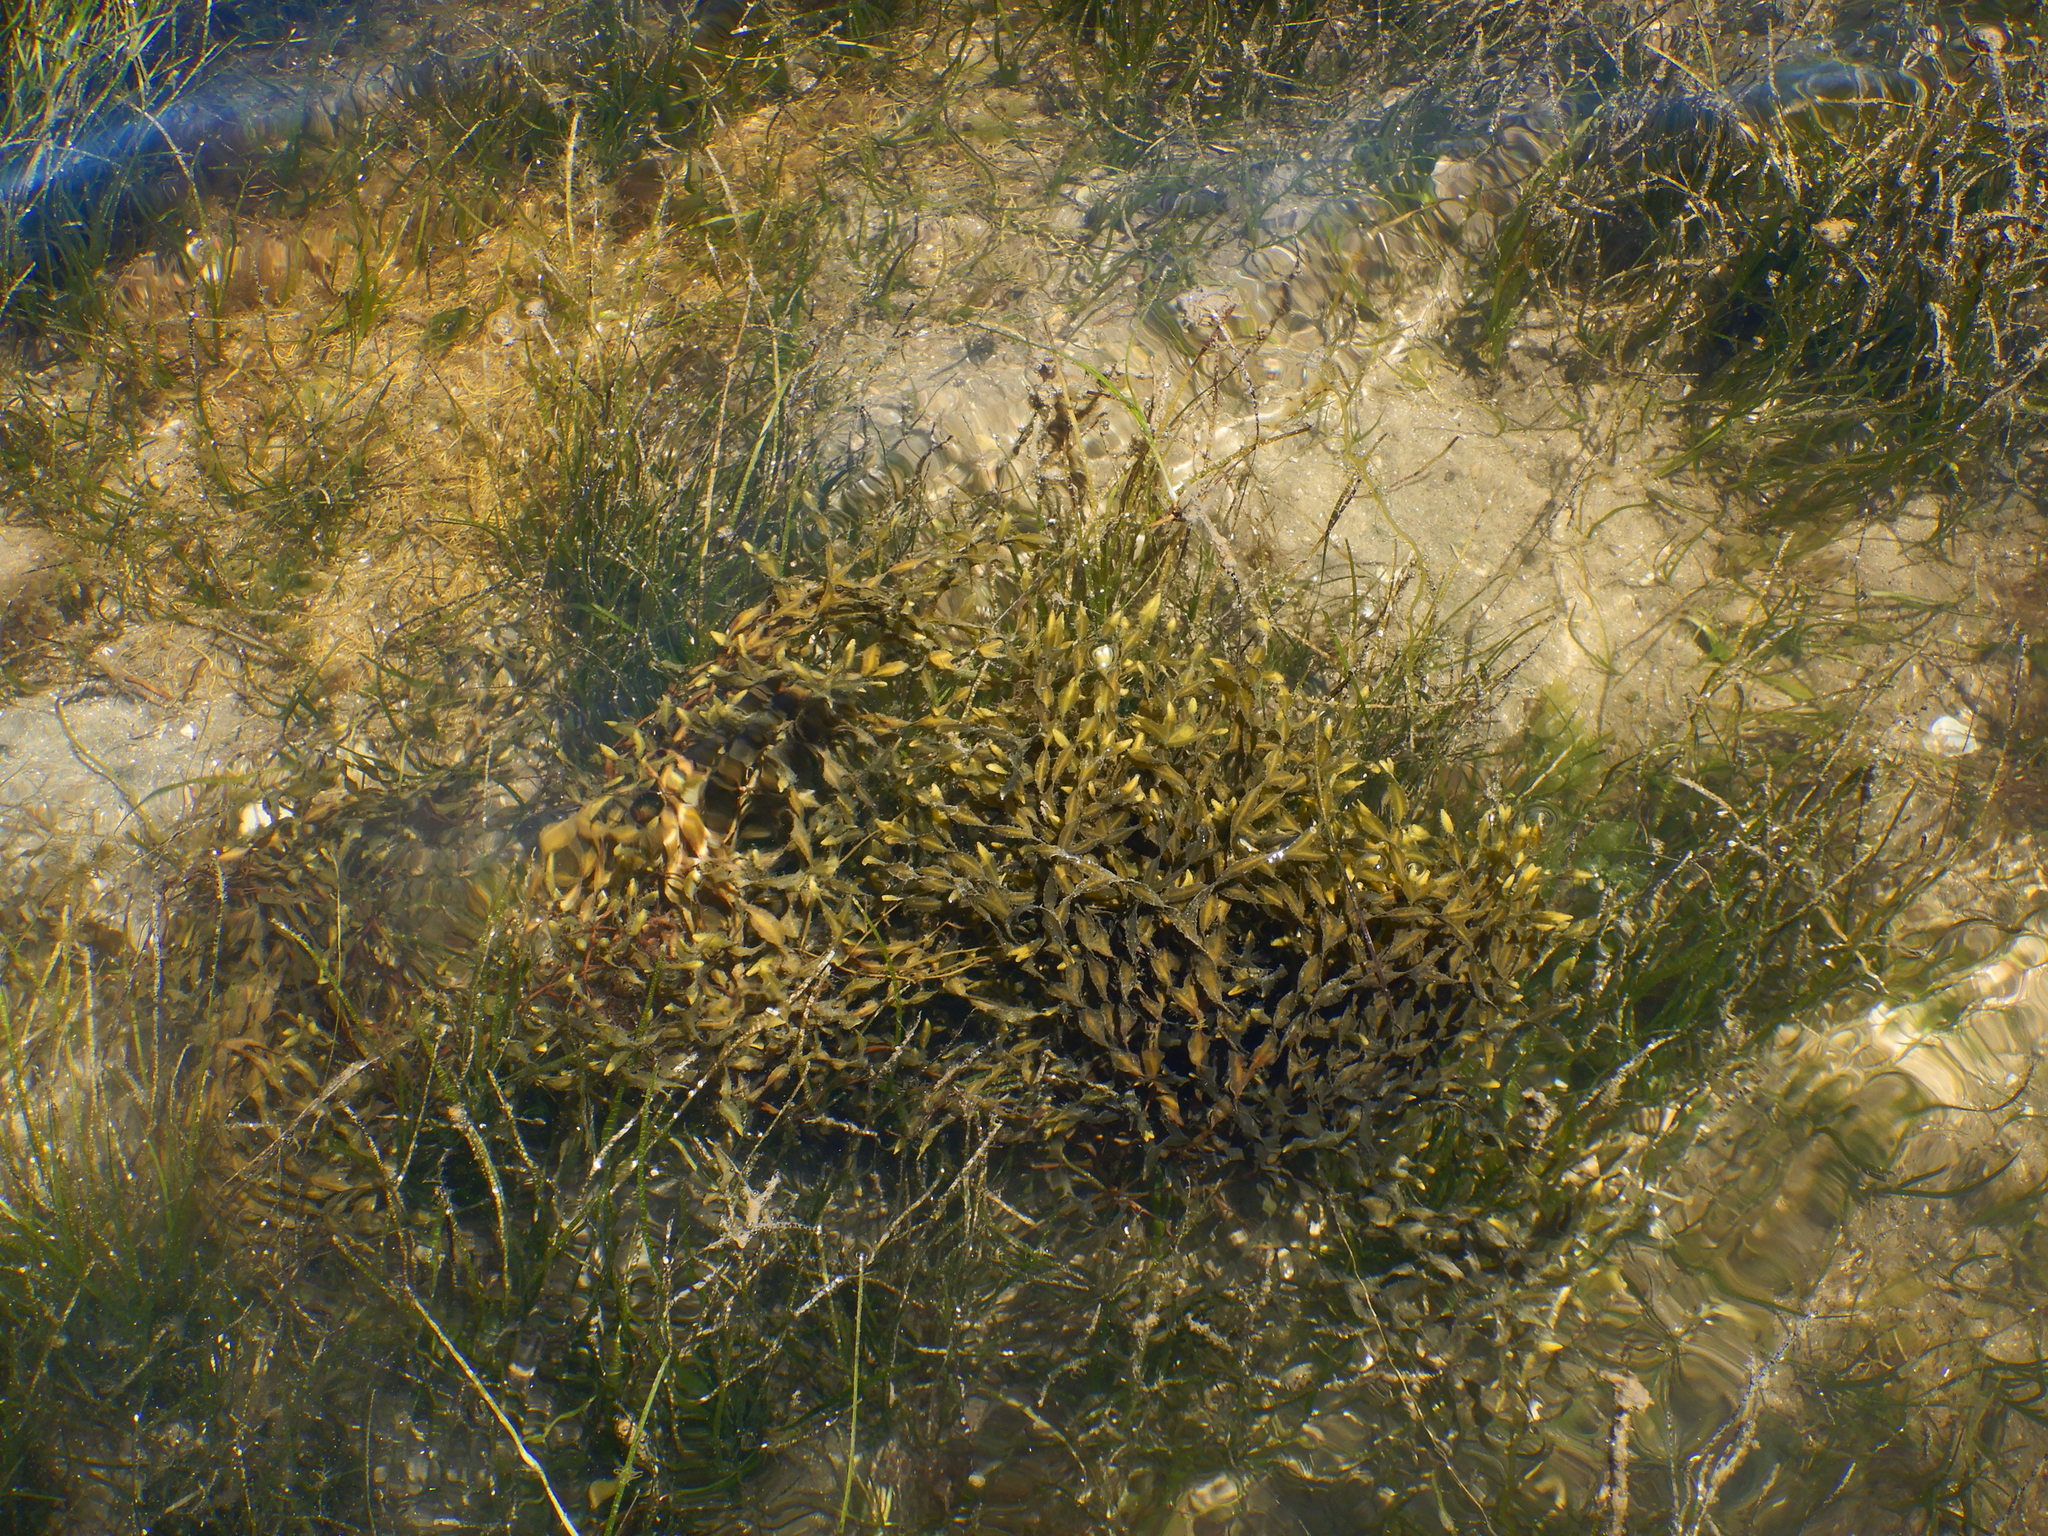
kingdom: Chromista
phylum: Ochrophyta
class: Phaeophyceae
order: Fucales
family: Fucaceae
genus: Fucus
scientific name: Fucus vesiculosus
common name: Bladder wrack
